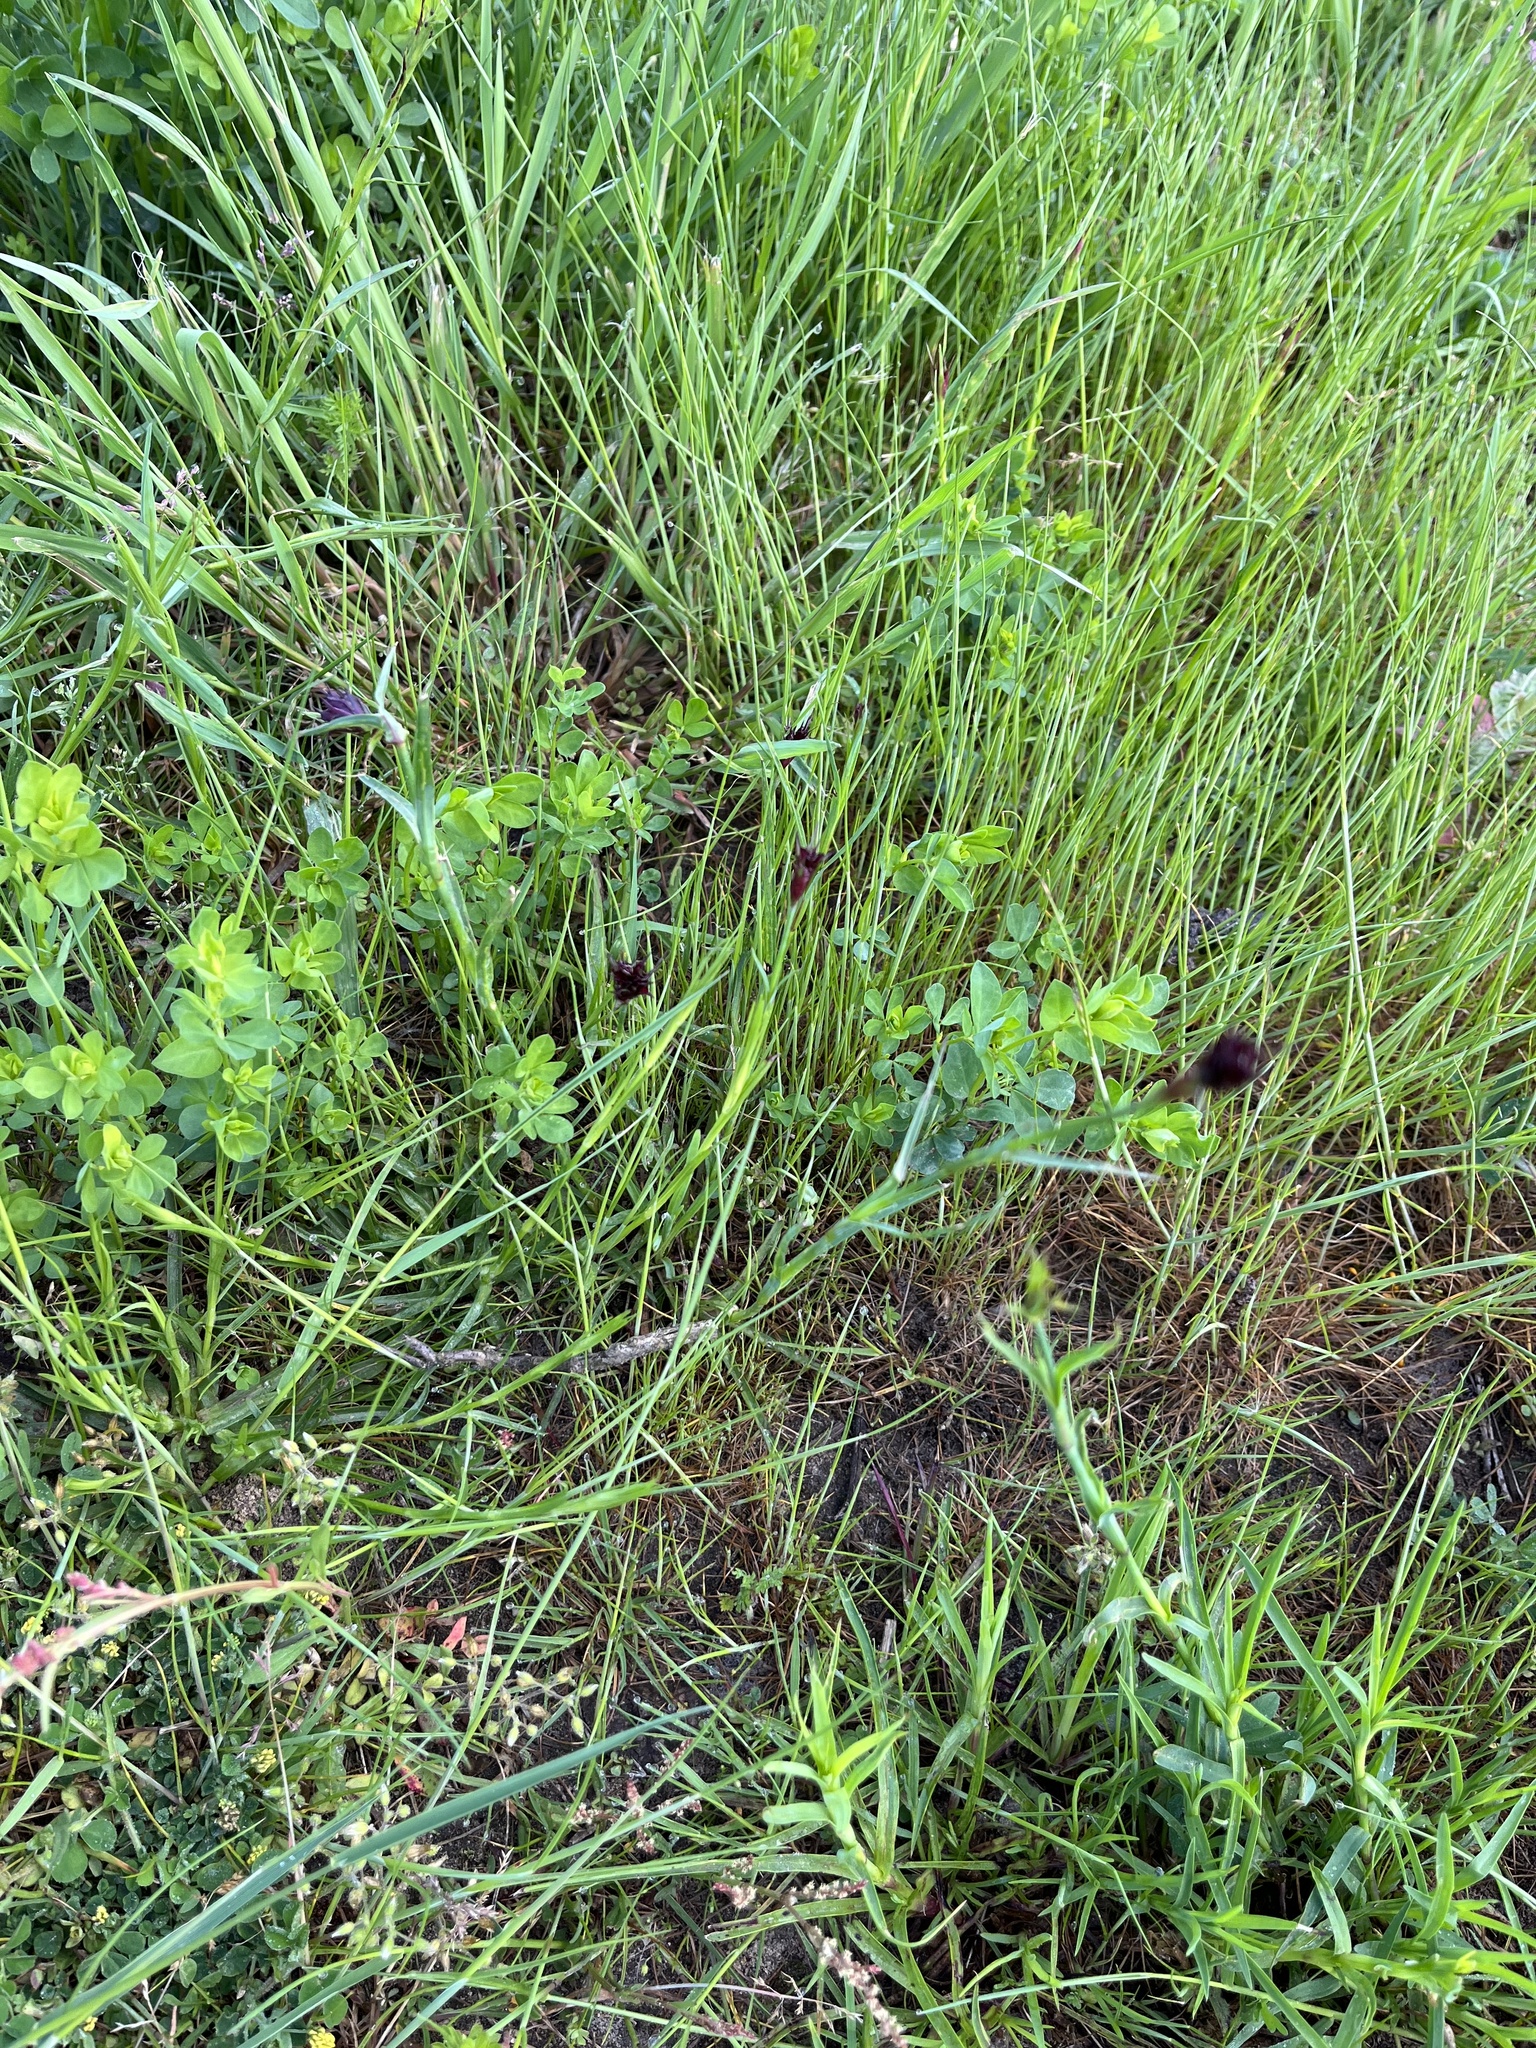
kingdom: Plantae
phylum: Tracheophyta
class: Magnoliopsida
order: Caryophyllales
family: Caryophyllaceae
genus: Dianthus
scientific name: Dianthus carthusianorum
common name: Carthusian pink
